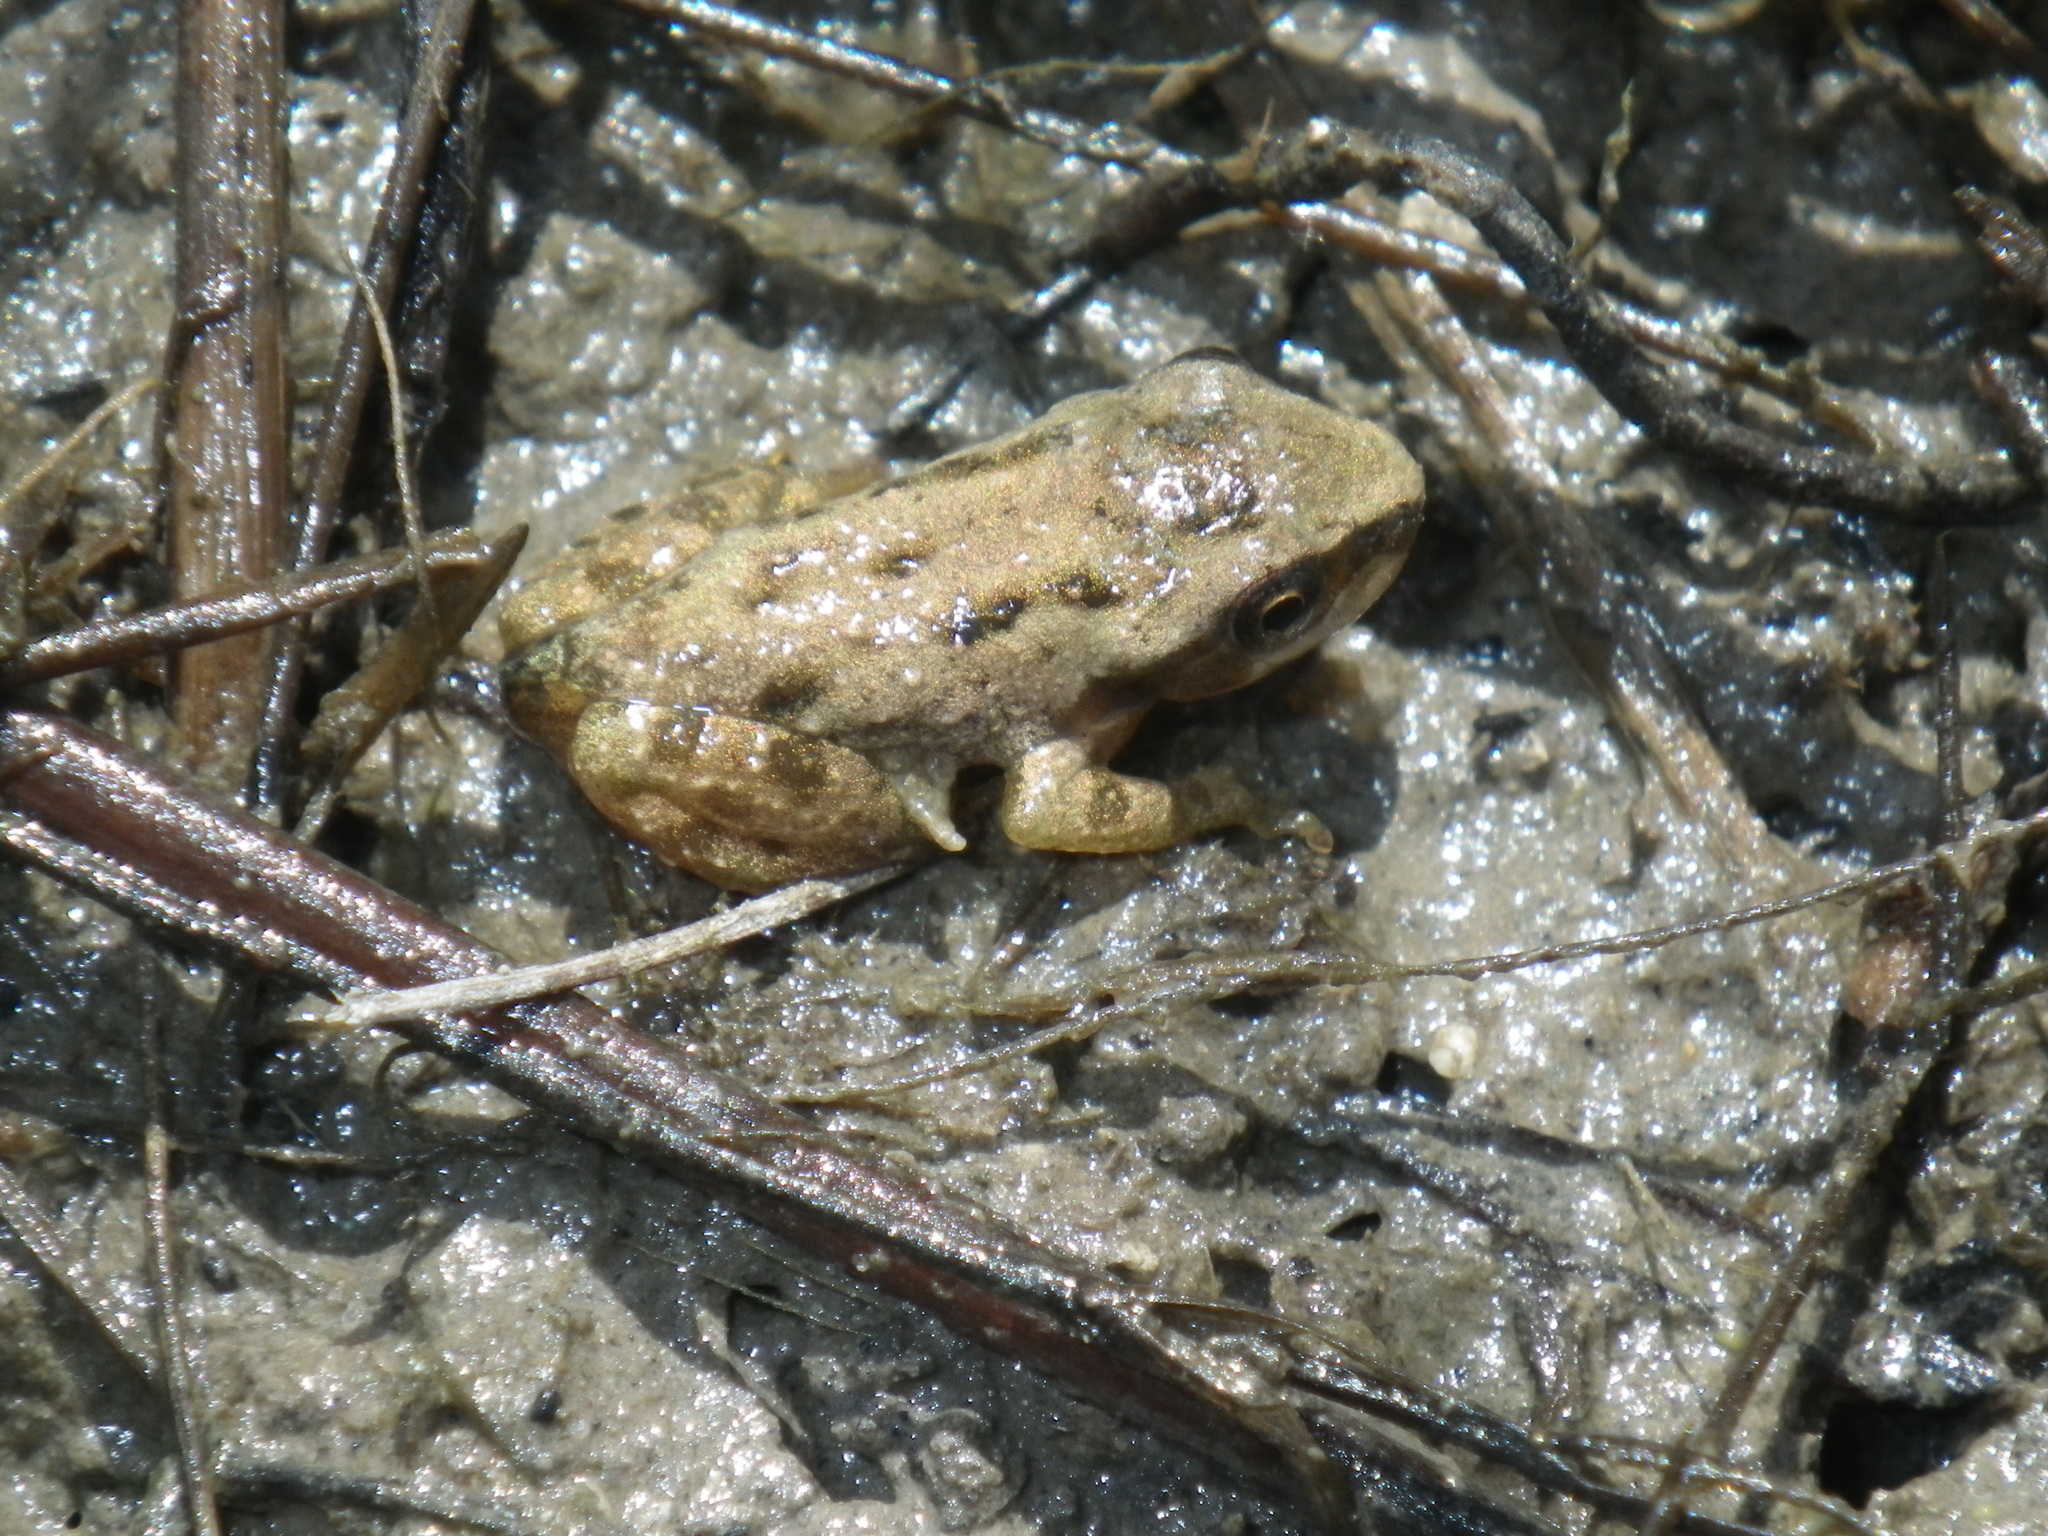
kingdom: Animalia
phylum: Chordata
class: Amphibia
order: Anura
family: Hylidae
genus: Pseudacris
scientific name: Pseudacris regilla
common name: Pacific chorus frog
